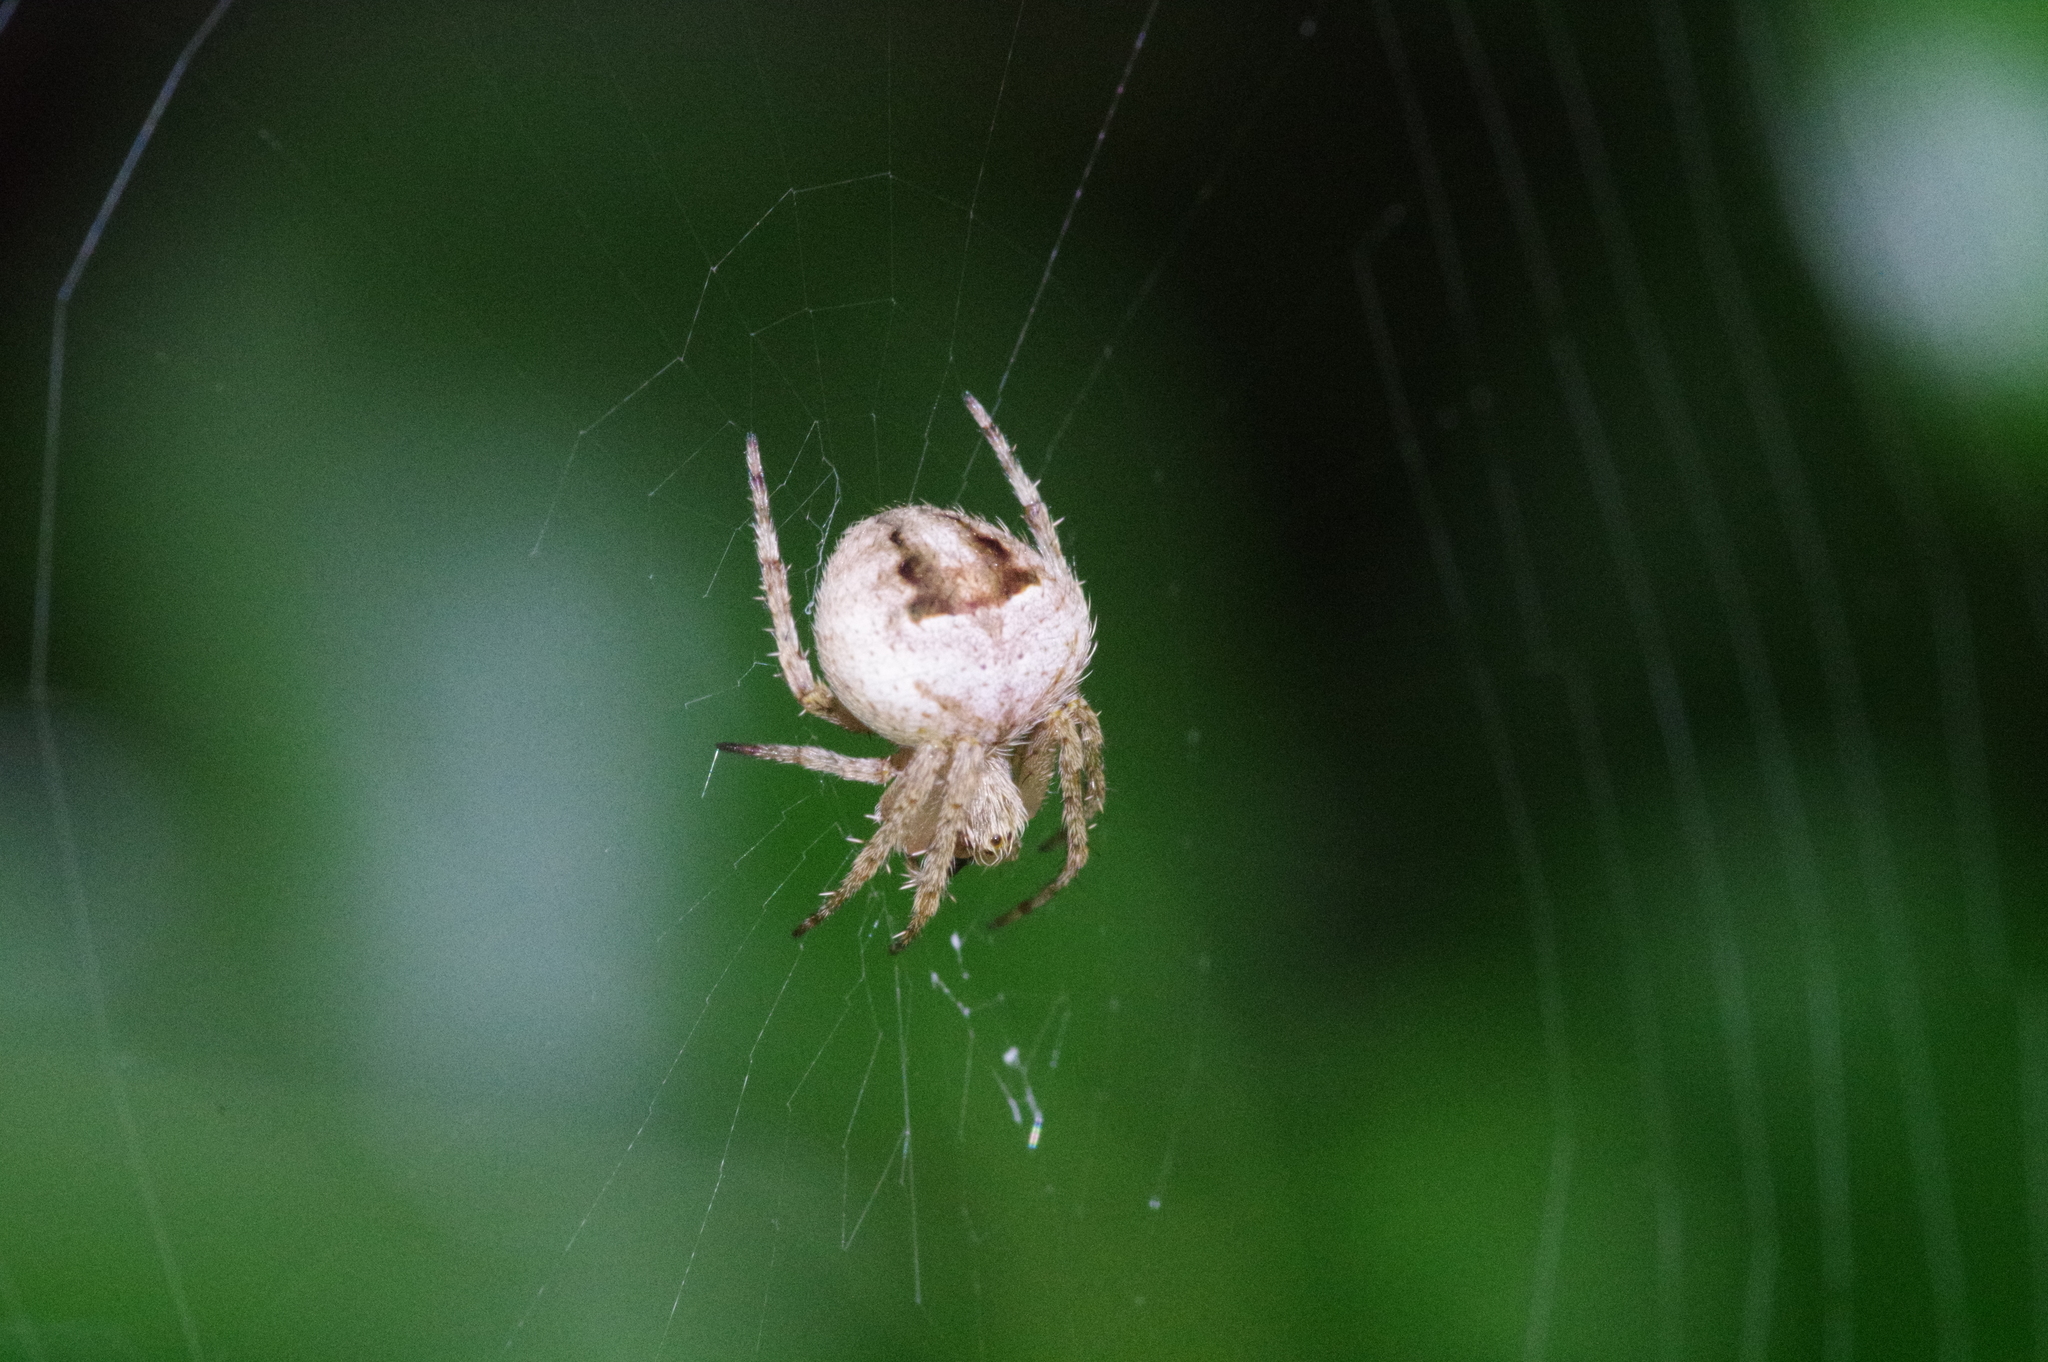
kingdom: Animalia
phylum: Arthropoda
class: Arachnida
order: Araneae
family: Araneidae
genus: Neoscona
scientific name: Neoscona scylla
